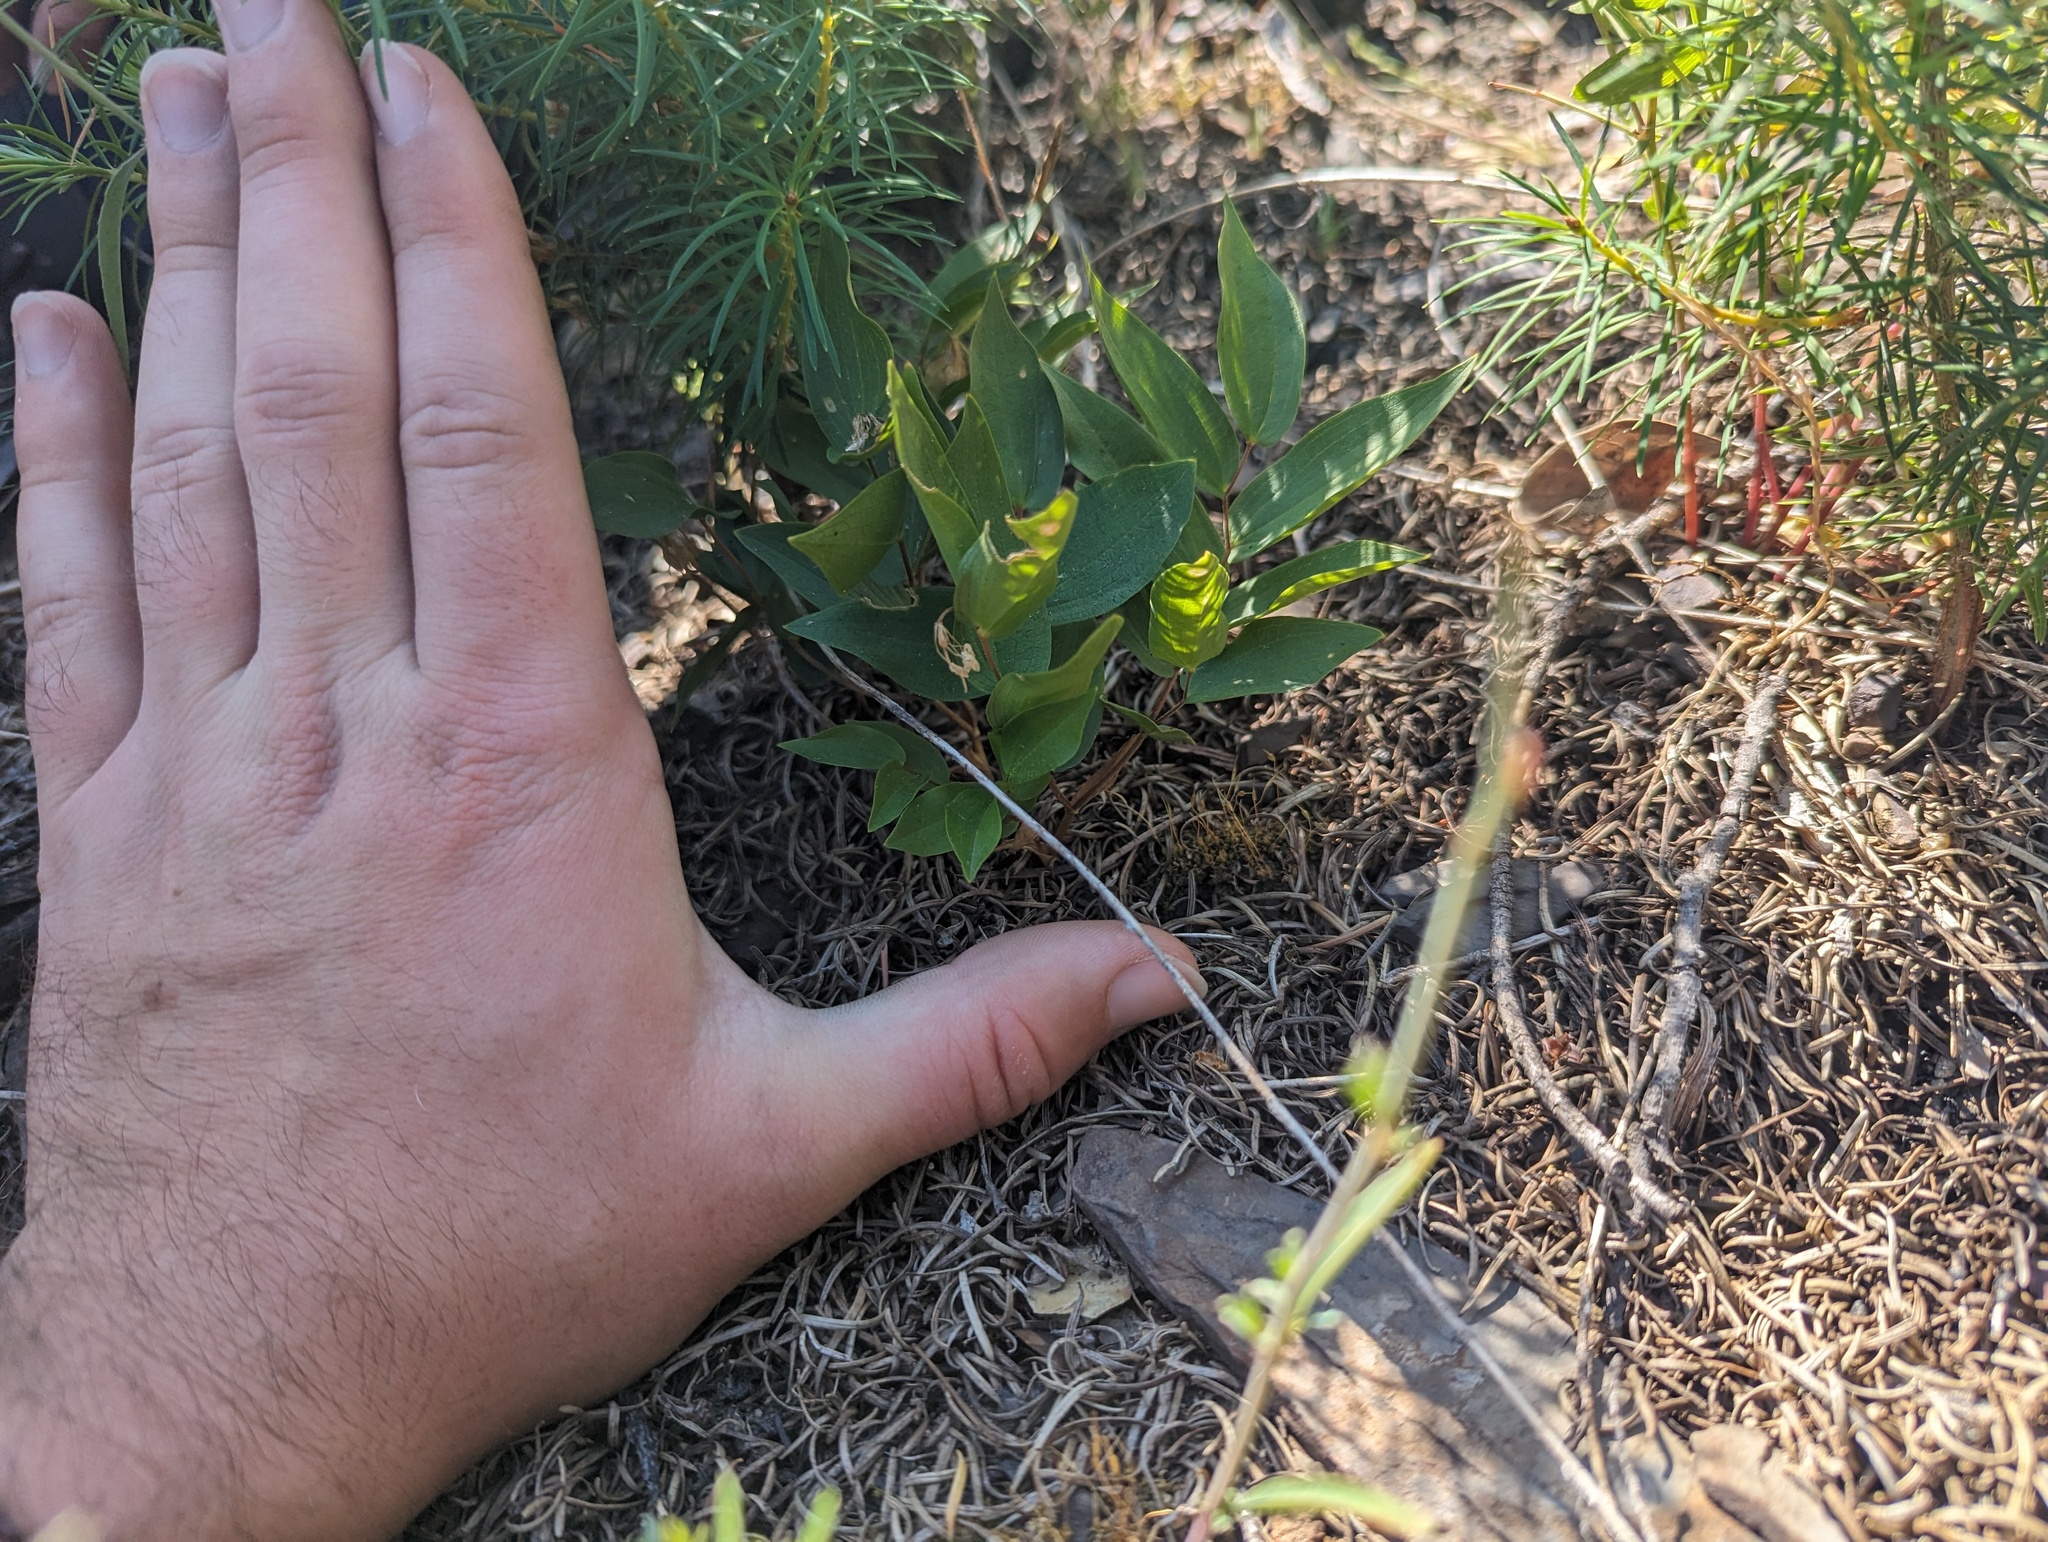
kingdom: Plantae
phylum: Tracheophyta
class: Liliopsida
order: Liliales
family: Liliaceae
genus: Prosartes
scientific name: Prosartes hookeri
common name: Fairy-bells
